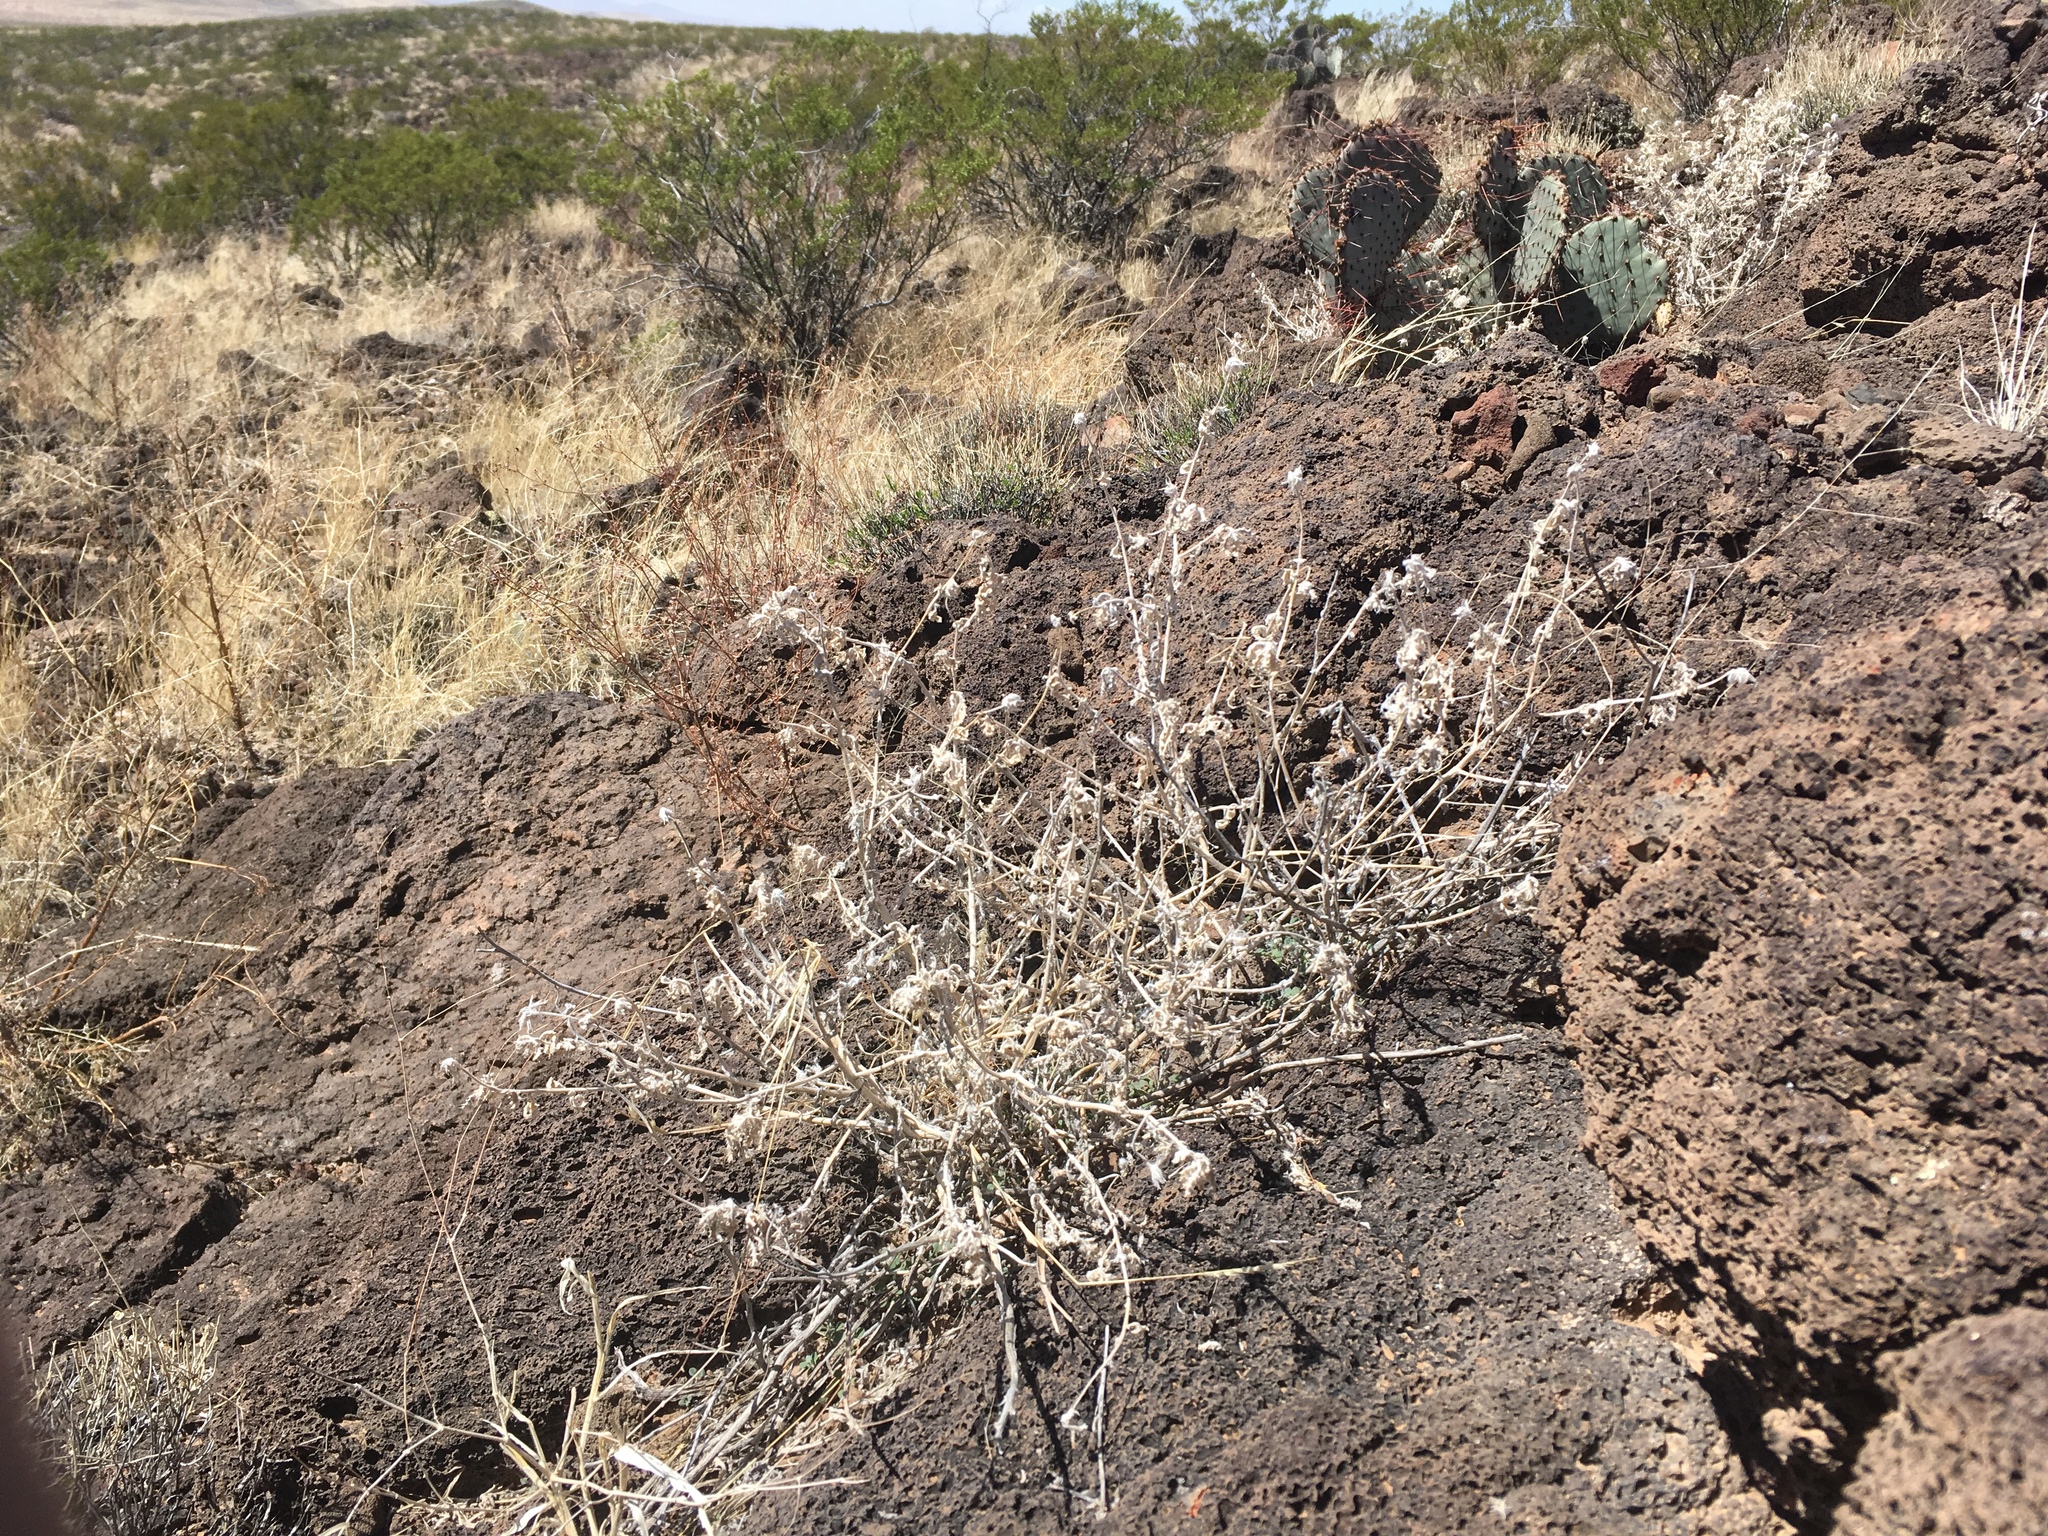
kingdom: Plantae
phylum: Tracheophyta
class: Magnoliopsida
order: Cornales
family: Loasaceae
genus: Cevallia
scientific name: Cevallia sinuata
